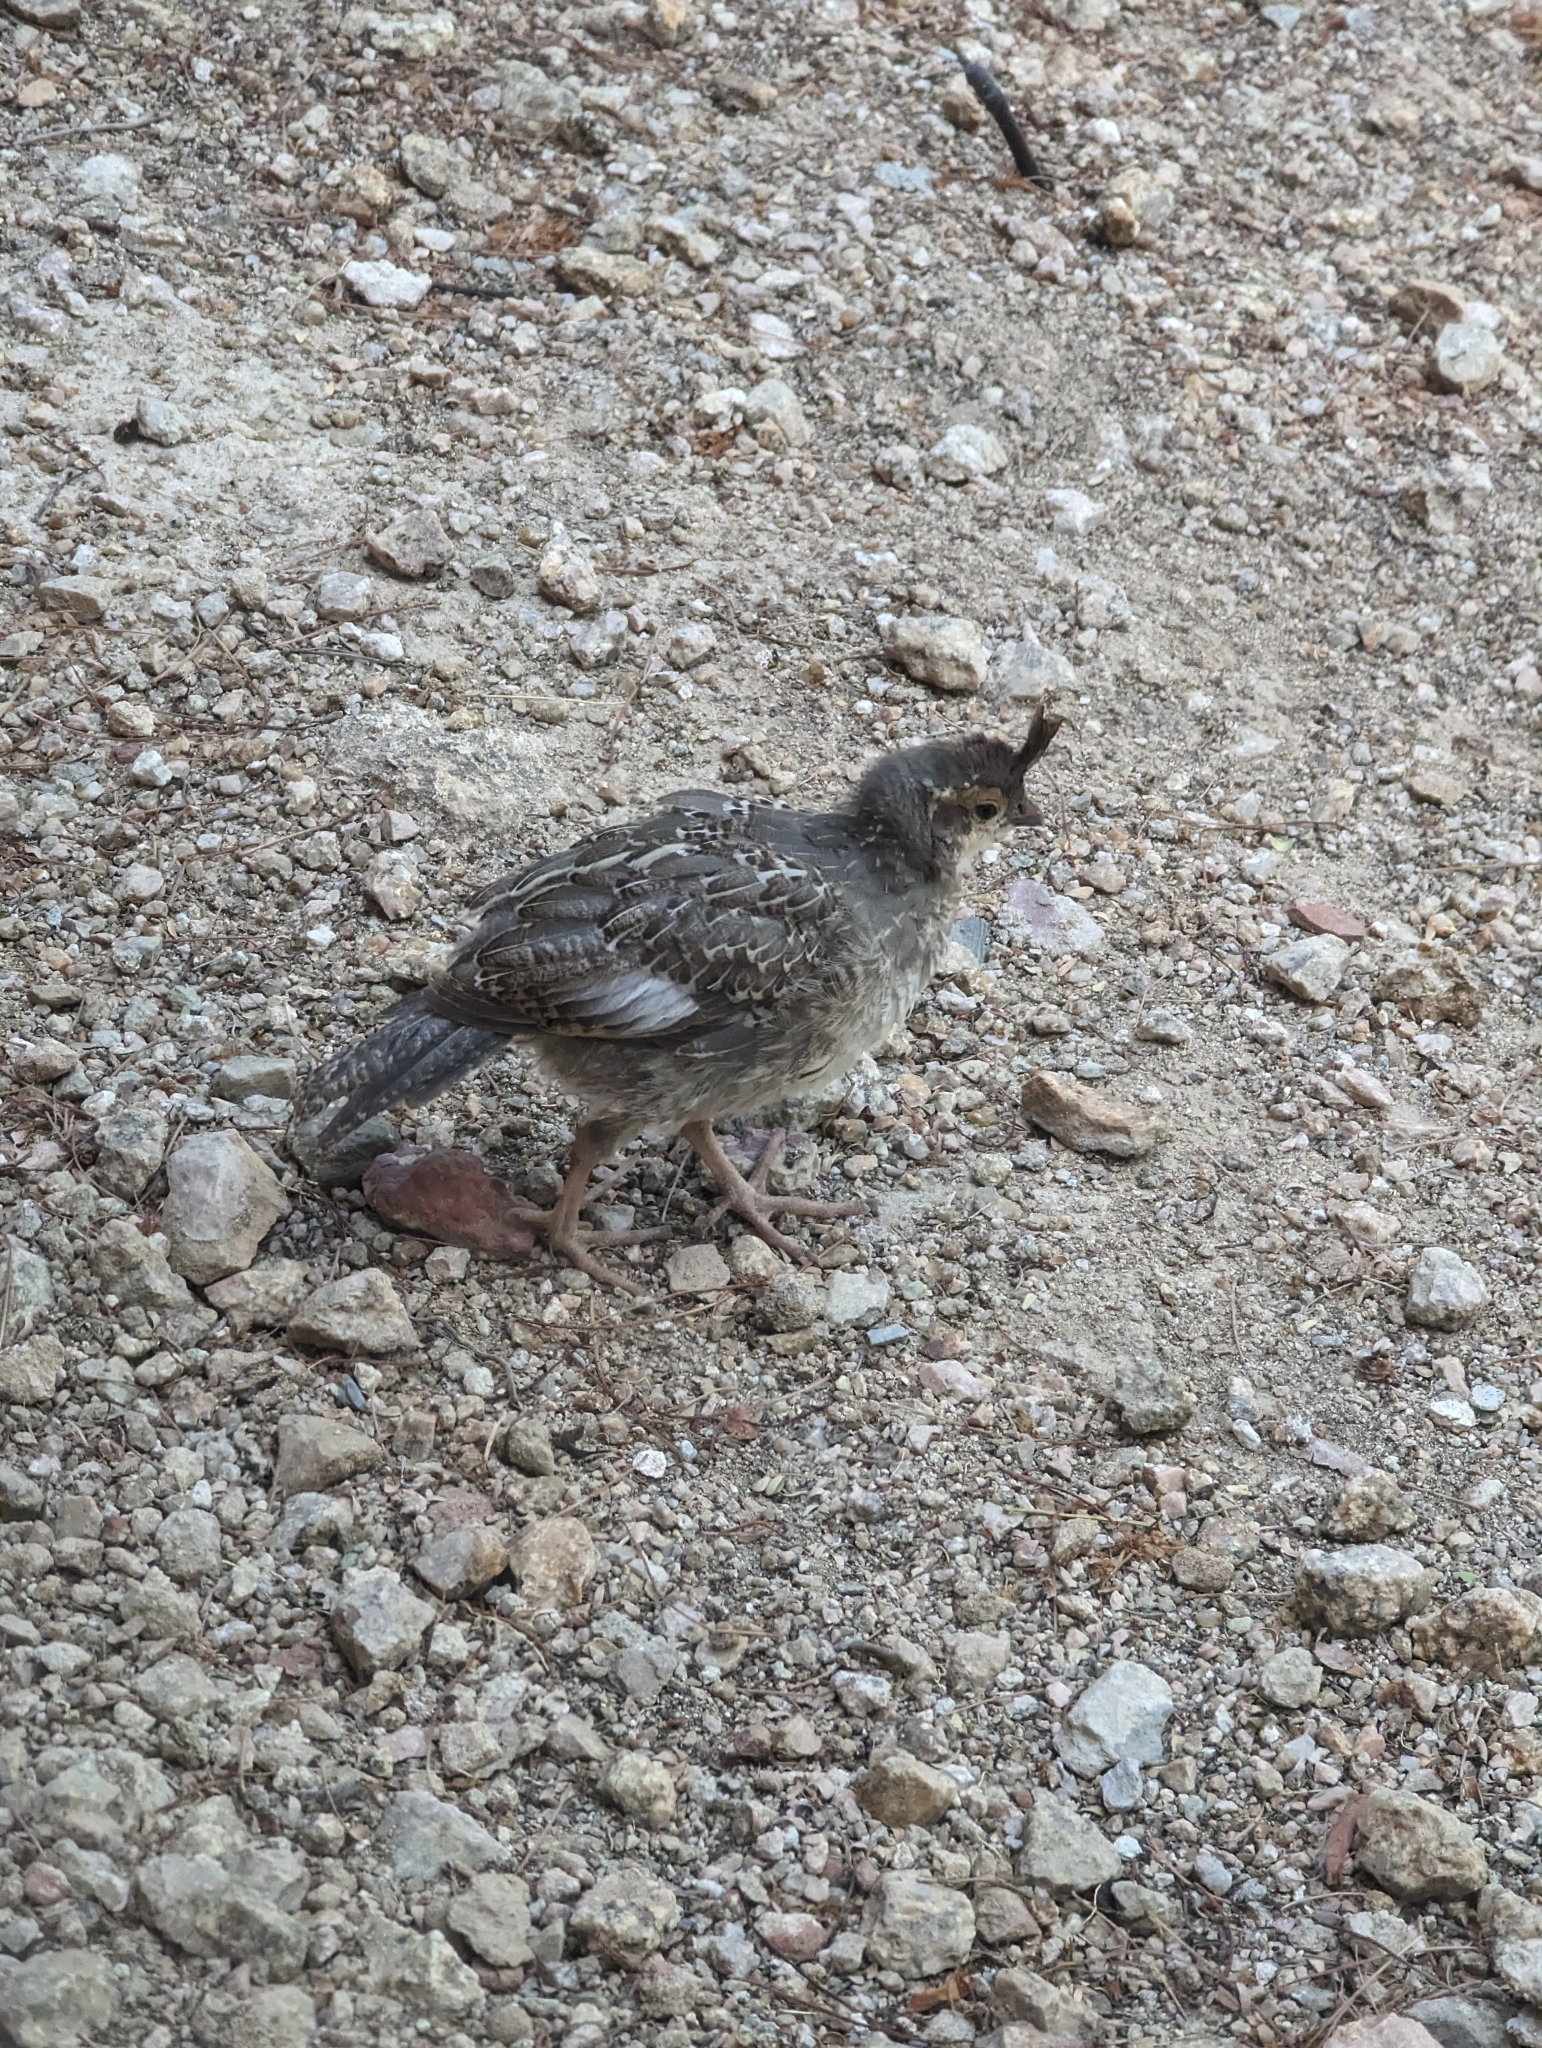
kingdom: Animalia
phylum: Chordata
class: Aves
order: Galliformes
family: Odontophoridae
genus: Callipepla
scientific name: Callipepla gambelii
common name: Gambel's quail
